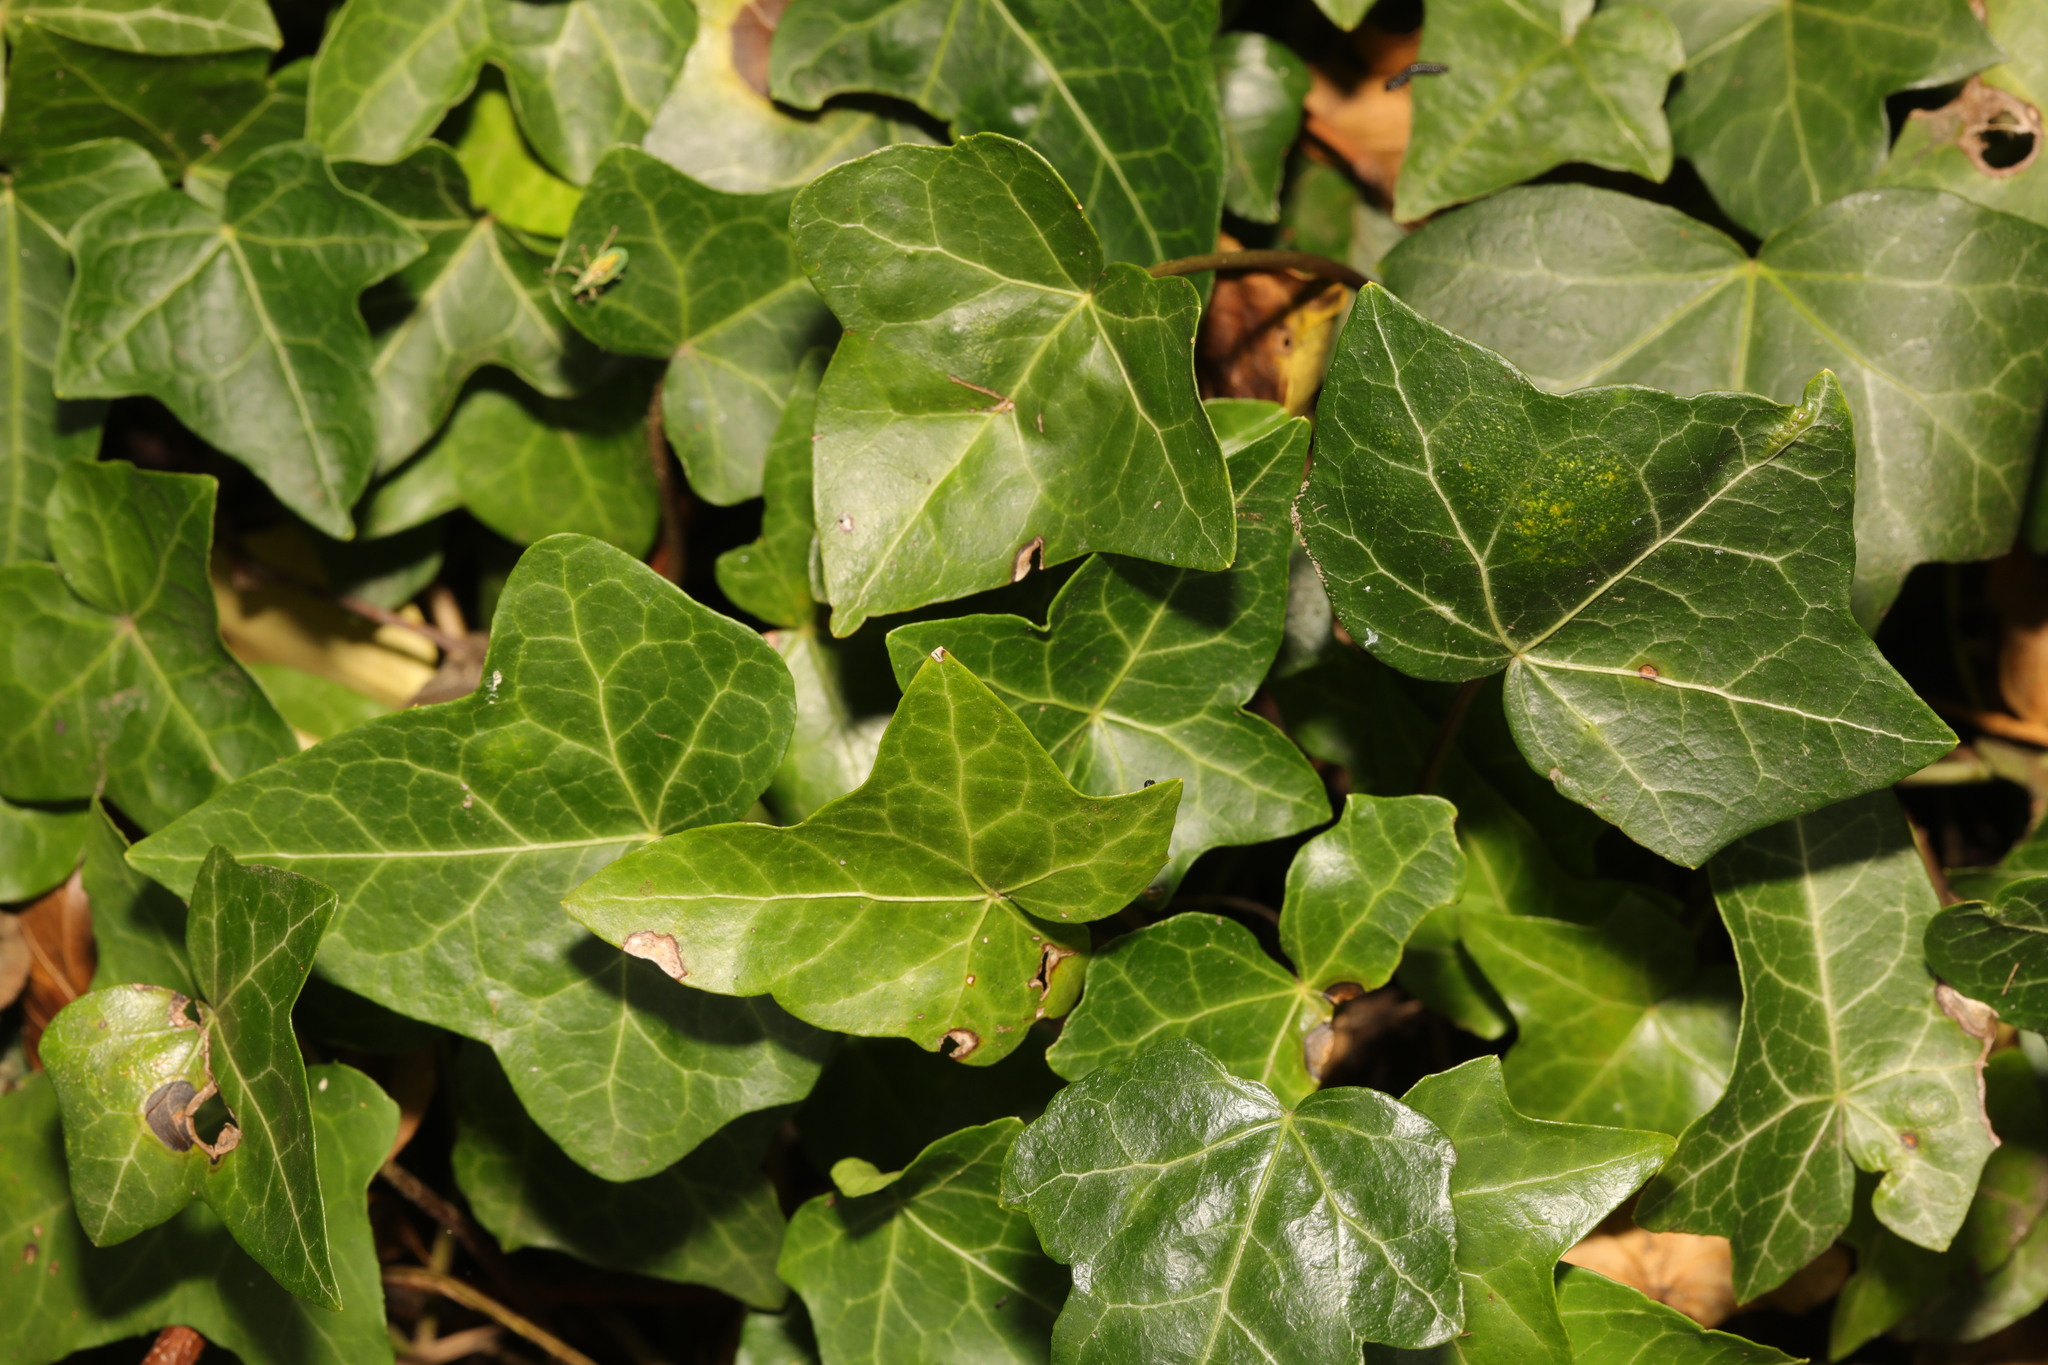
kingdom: Plantae
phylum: Tracheophyta
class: Magnoliopsida
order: Apiales
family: Araliaceae
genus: Hedera
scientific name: Hedera helix
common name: Ivy
